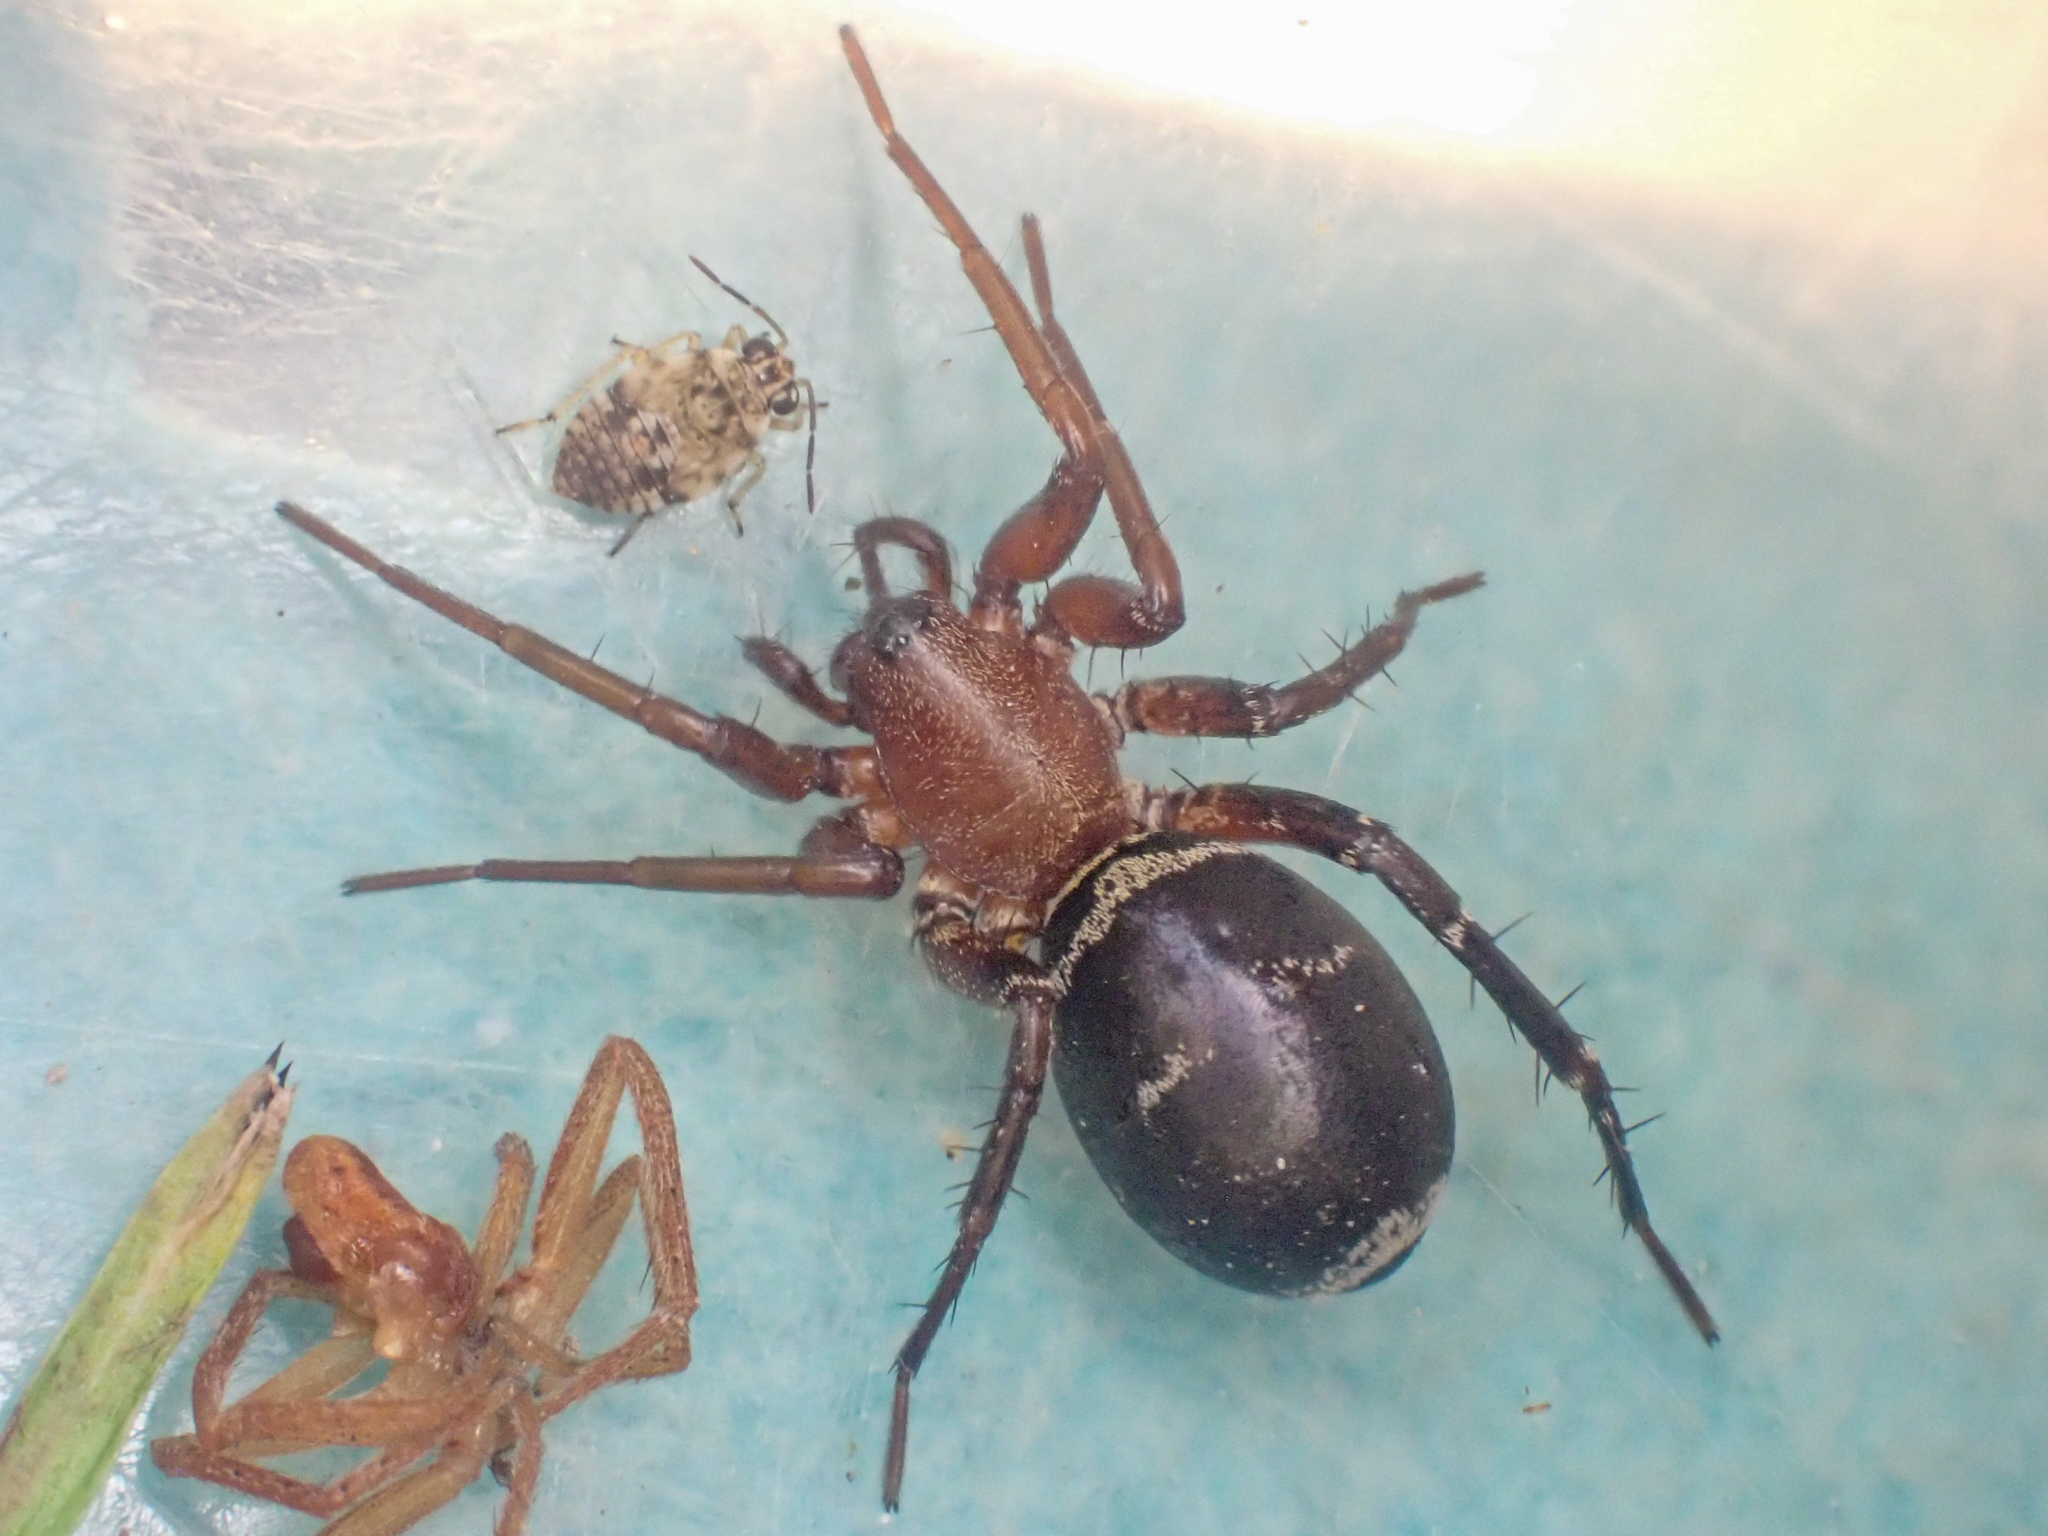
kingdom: Animalia
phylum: Arthropoda
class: Arachnida
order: Araneae
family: Corinnidae
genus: Castianeira
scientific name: Castianeira longipalpa
